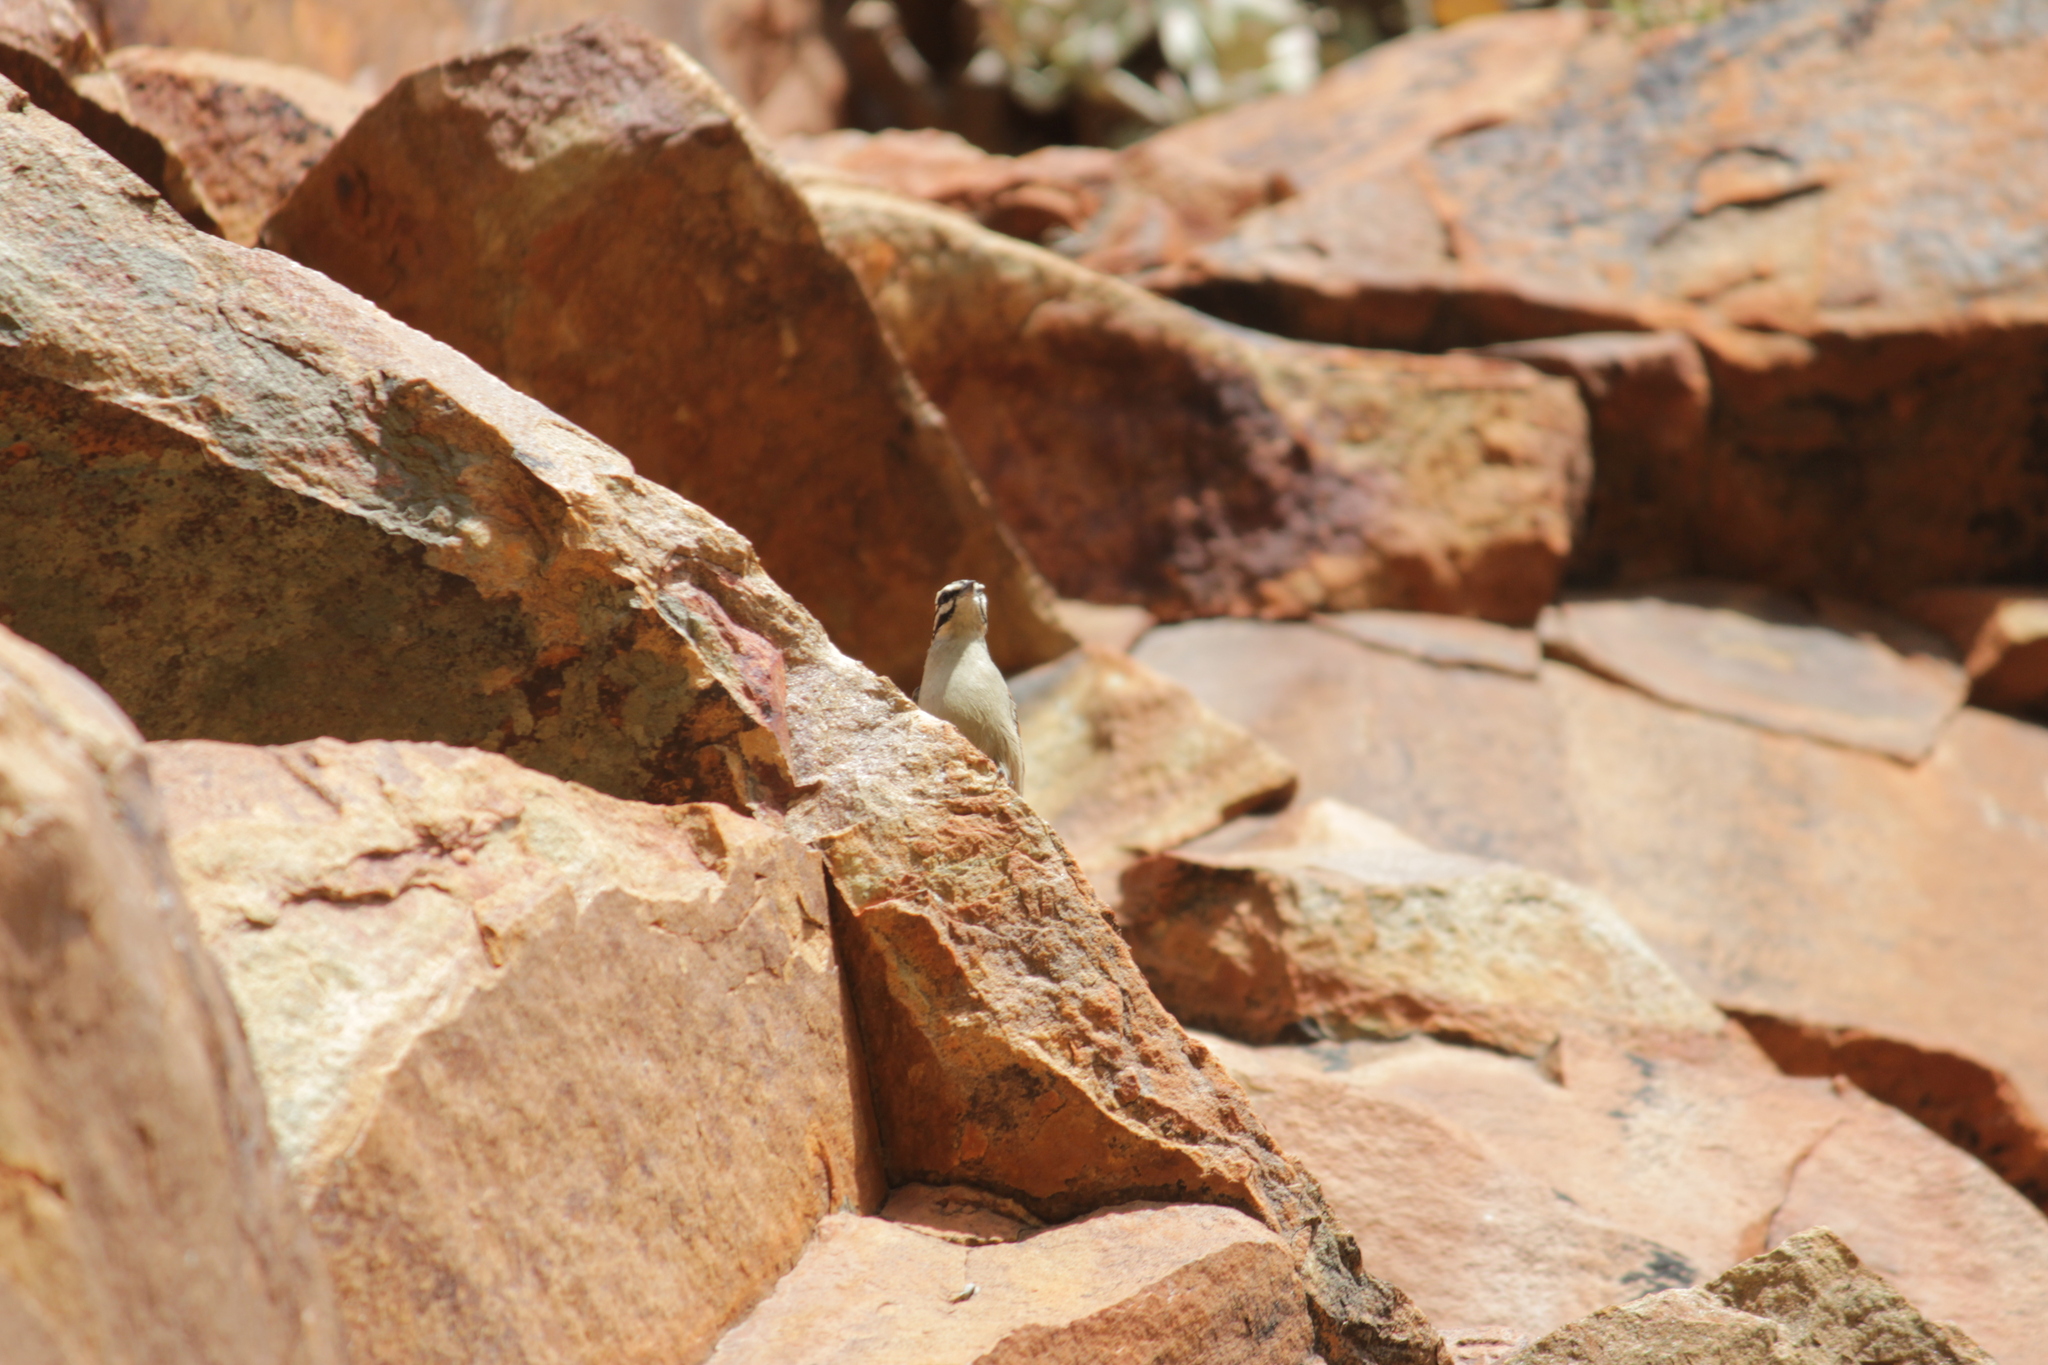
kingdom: Animalia
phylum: Chordata
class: Aves
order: Passeriformes
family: Emberizidae
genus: Emberiza
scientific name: Emberiza capensis
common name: Cape bunting
